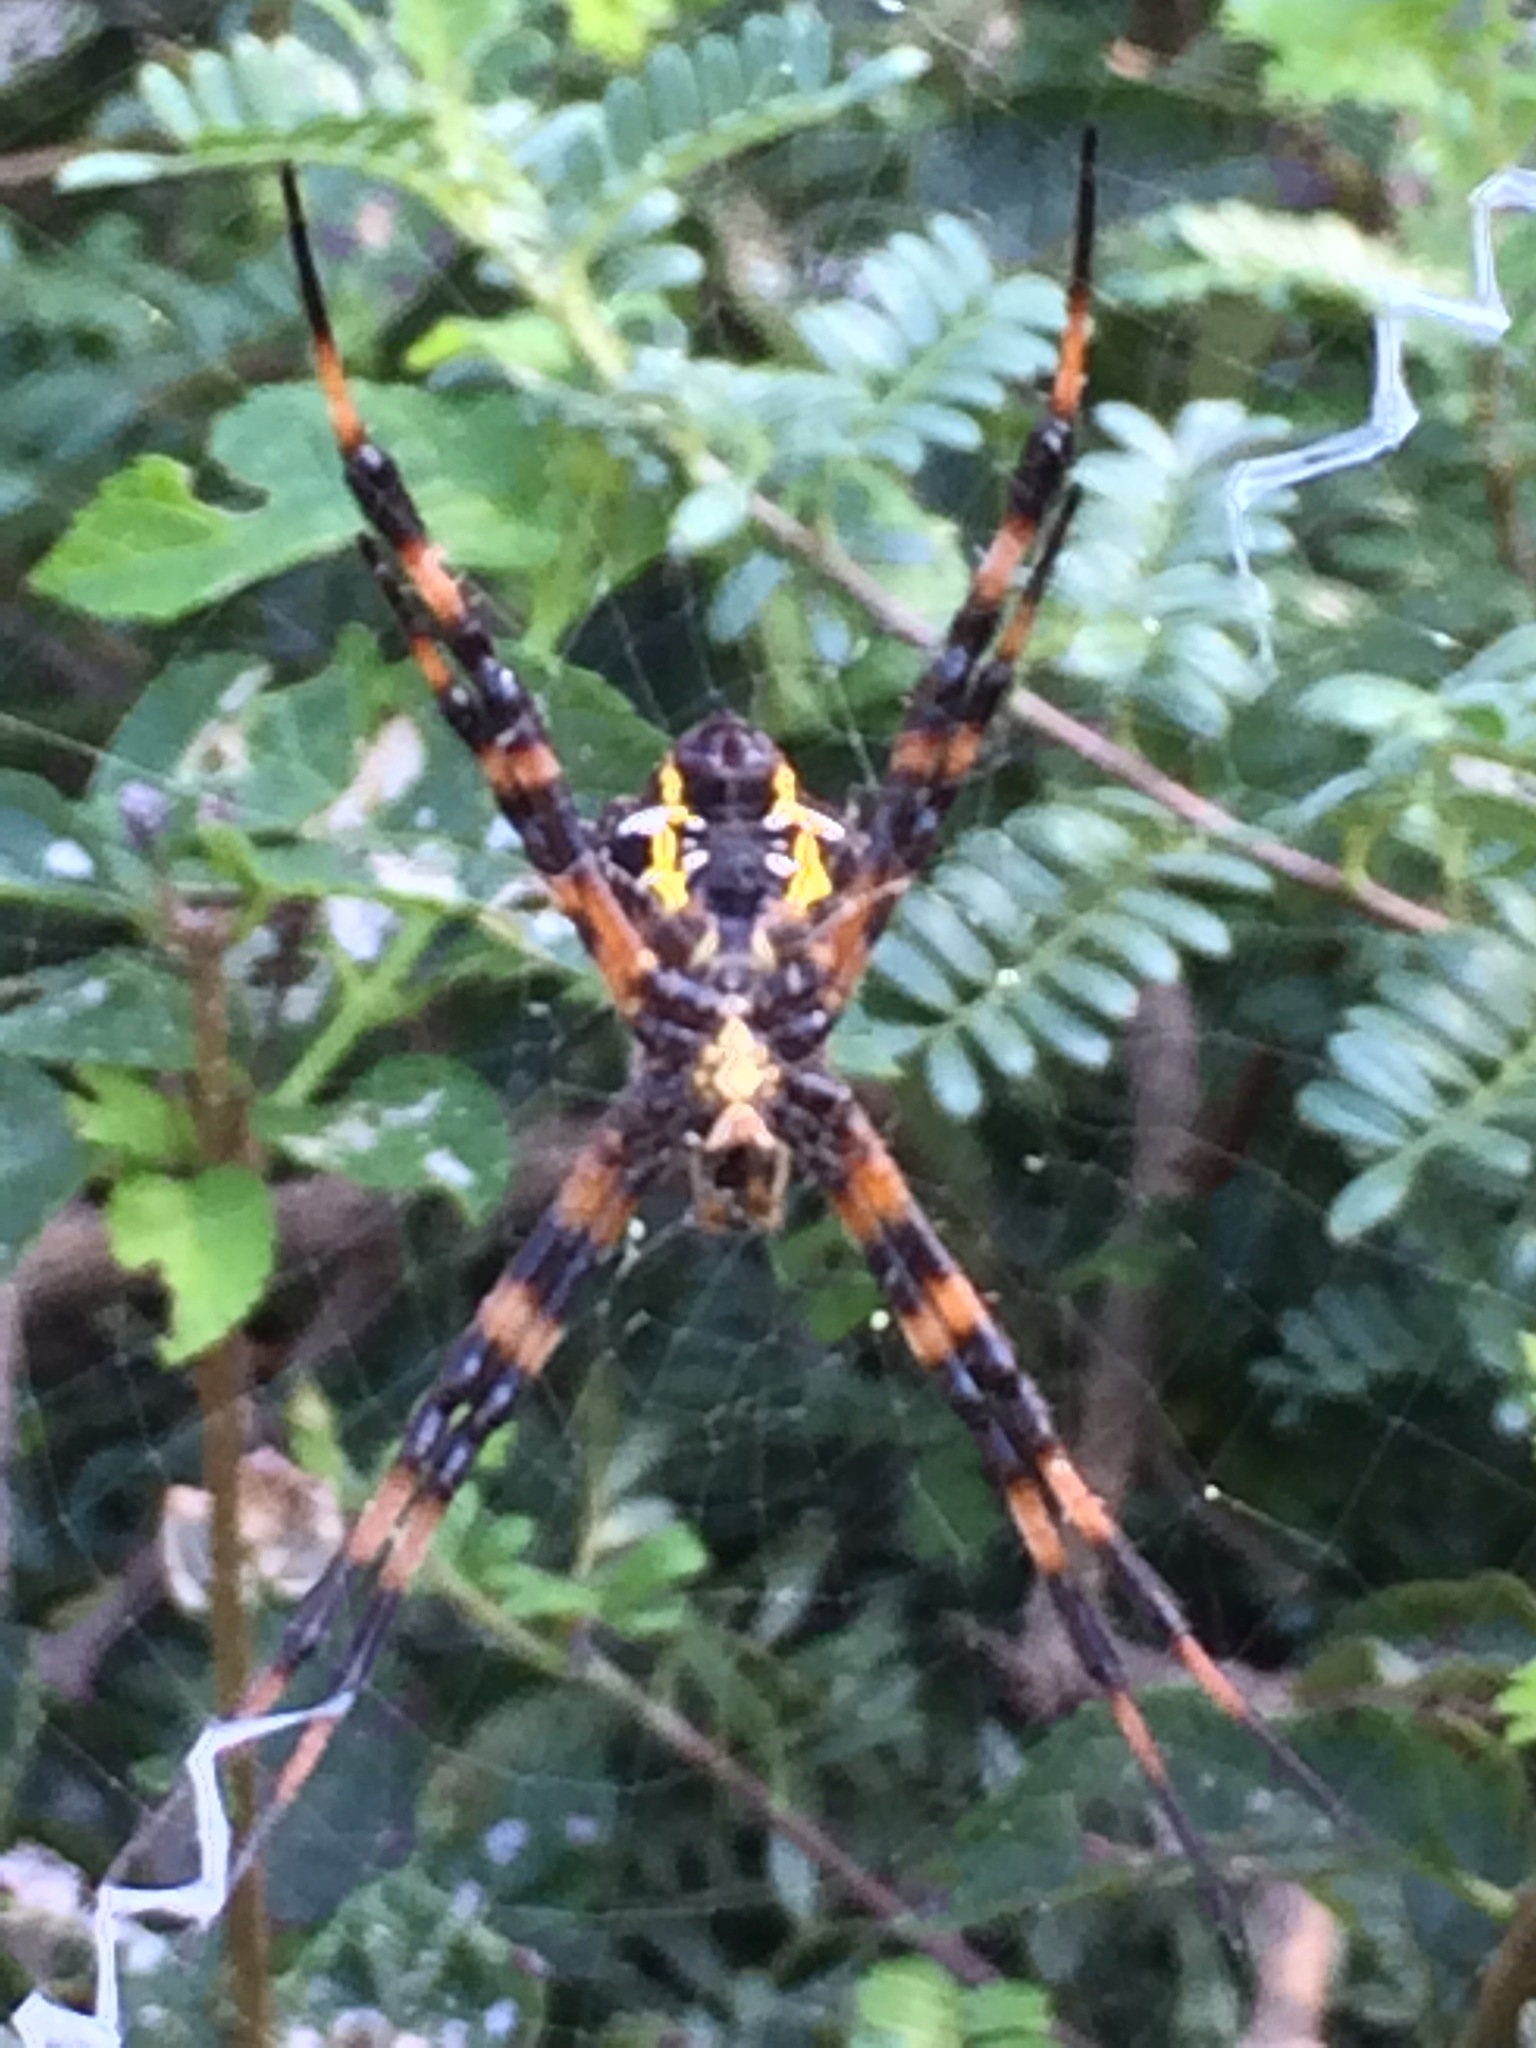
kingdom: Animalia
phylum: Arthropoda
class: Arachnida
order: Araneae
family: Araneidae
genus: Argiope
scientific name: Argiope appensa
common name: Garden spider
